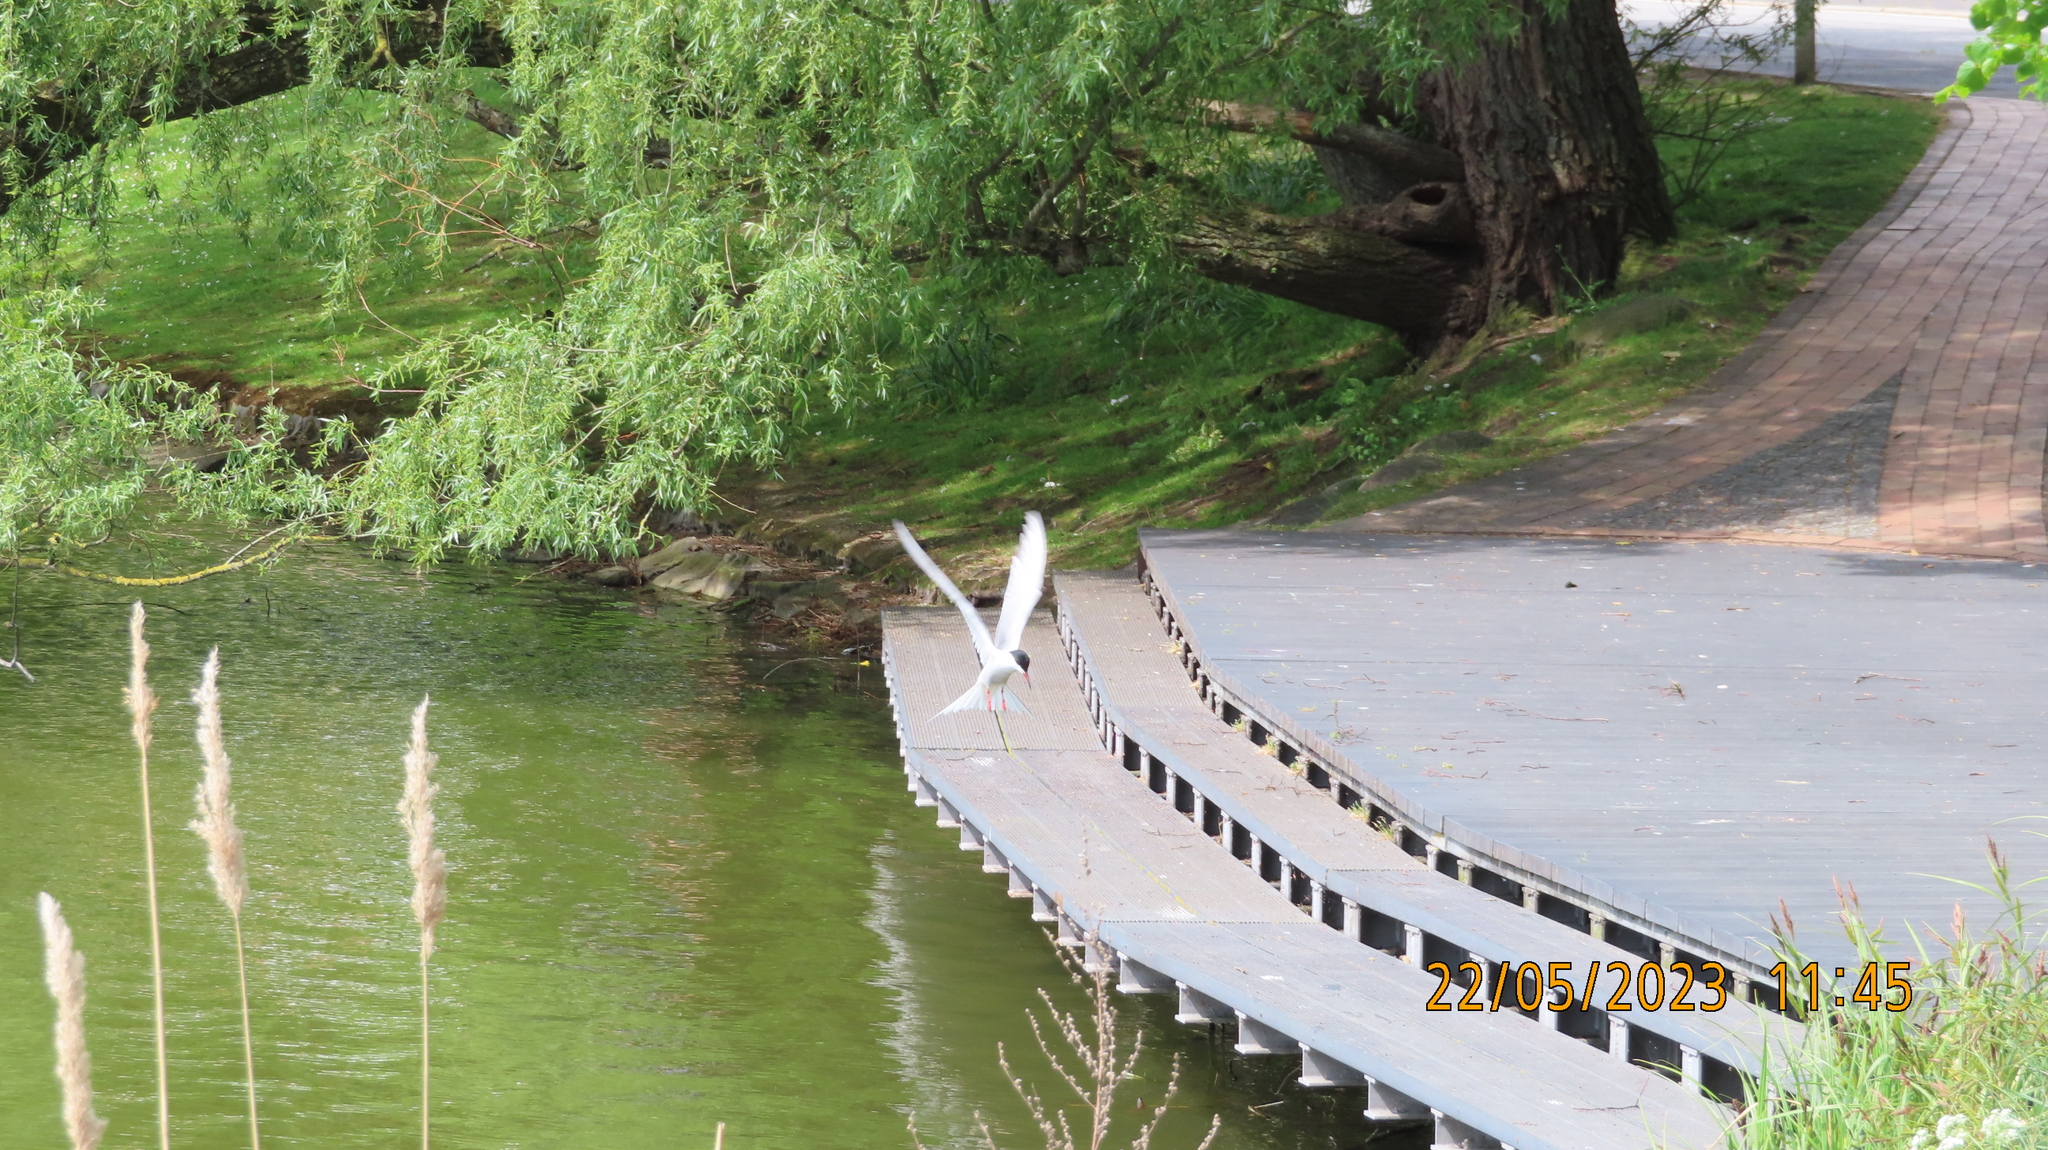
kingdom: Animalia
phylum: Chordata
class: Aves
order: Charadriiformes
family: Laridae
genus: Sterna
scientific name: Sterna hirundo
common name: Common tern
